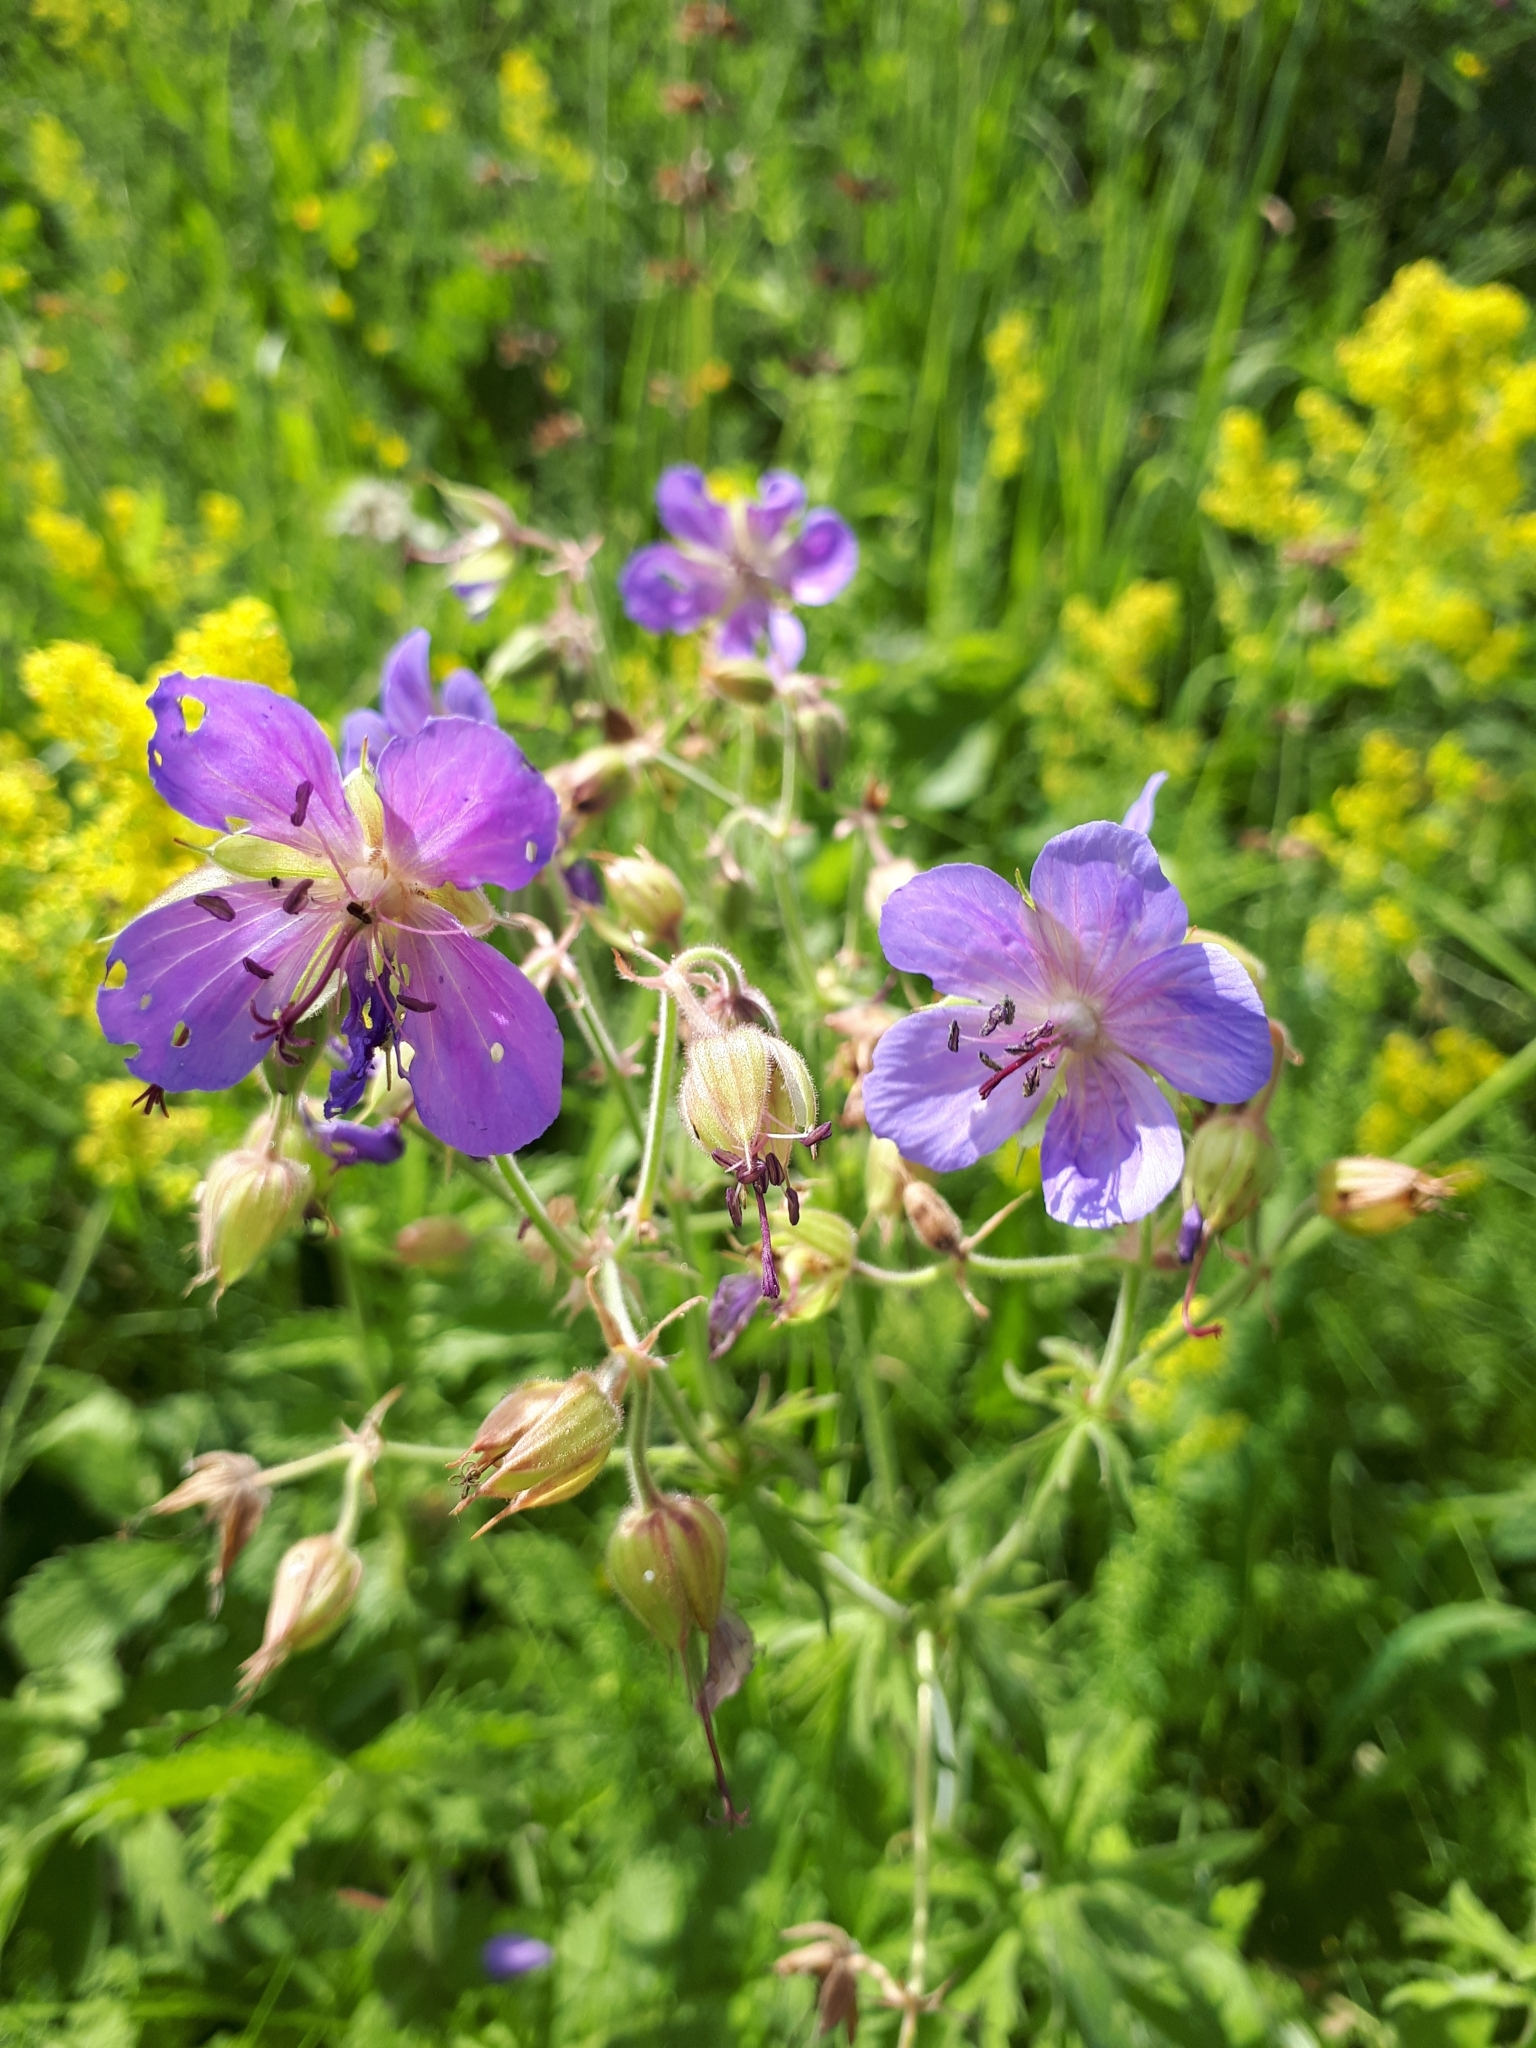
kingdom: Plantae
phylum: Tracheophyta
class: Magnoliopsida
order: Geraniales
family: Geraniaceae
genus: Geranium
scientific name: Geranium pratense
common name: Meadow crane's-bill
